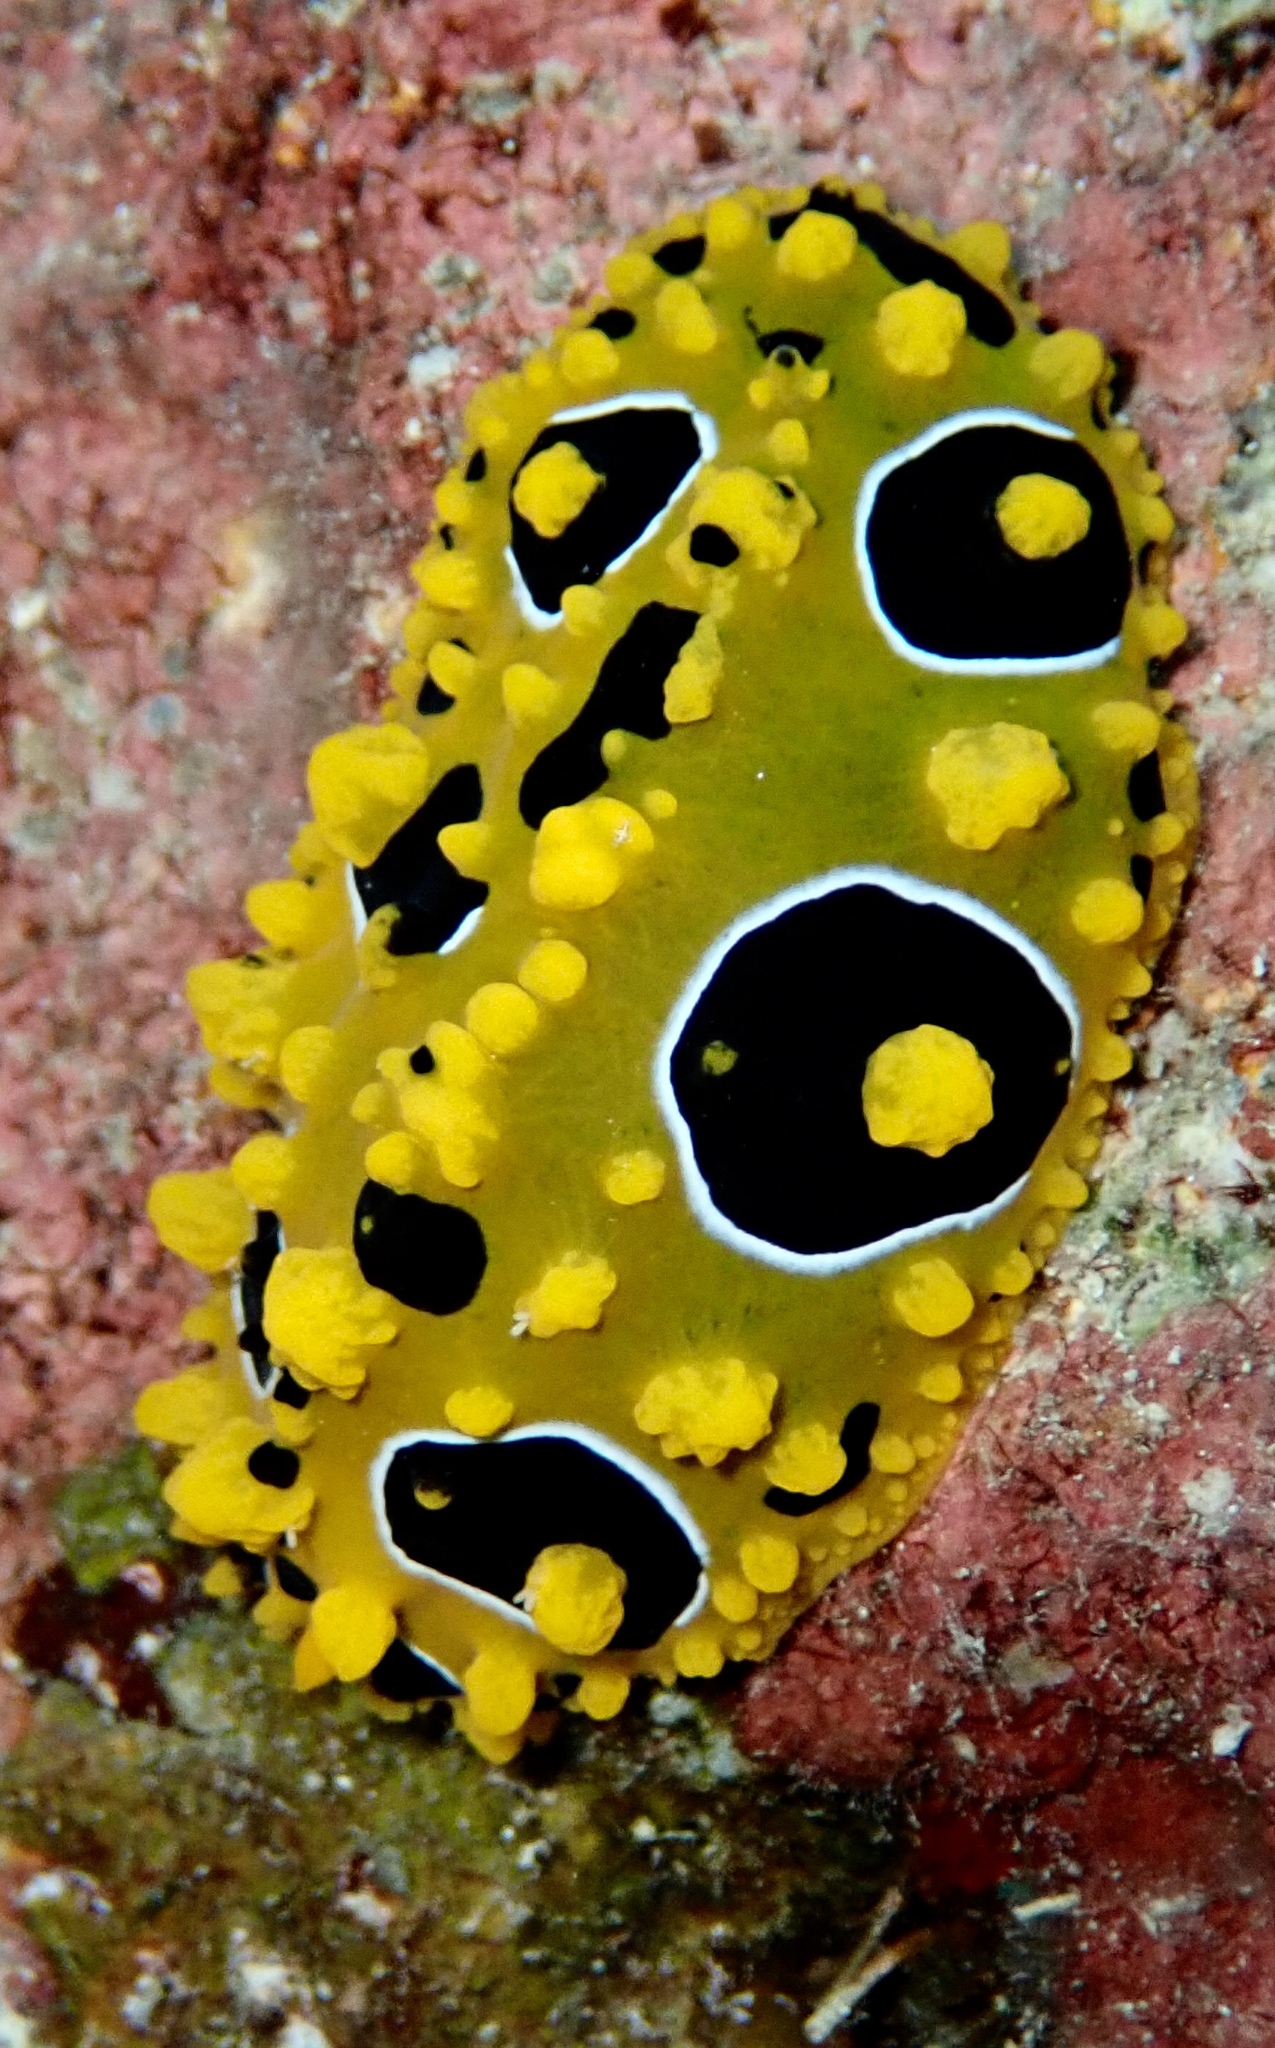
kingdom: Animalia
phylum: Mollusca
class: Gastropoda
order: Nudibranchia
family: Phyllidiidae
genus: Phyllidia
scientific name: Phyllidia ocellata
